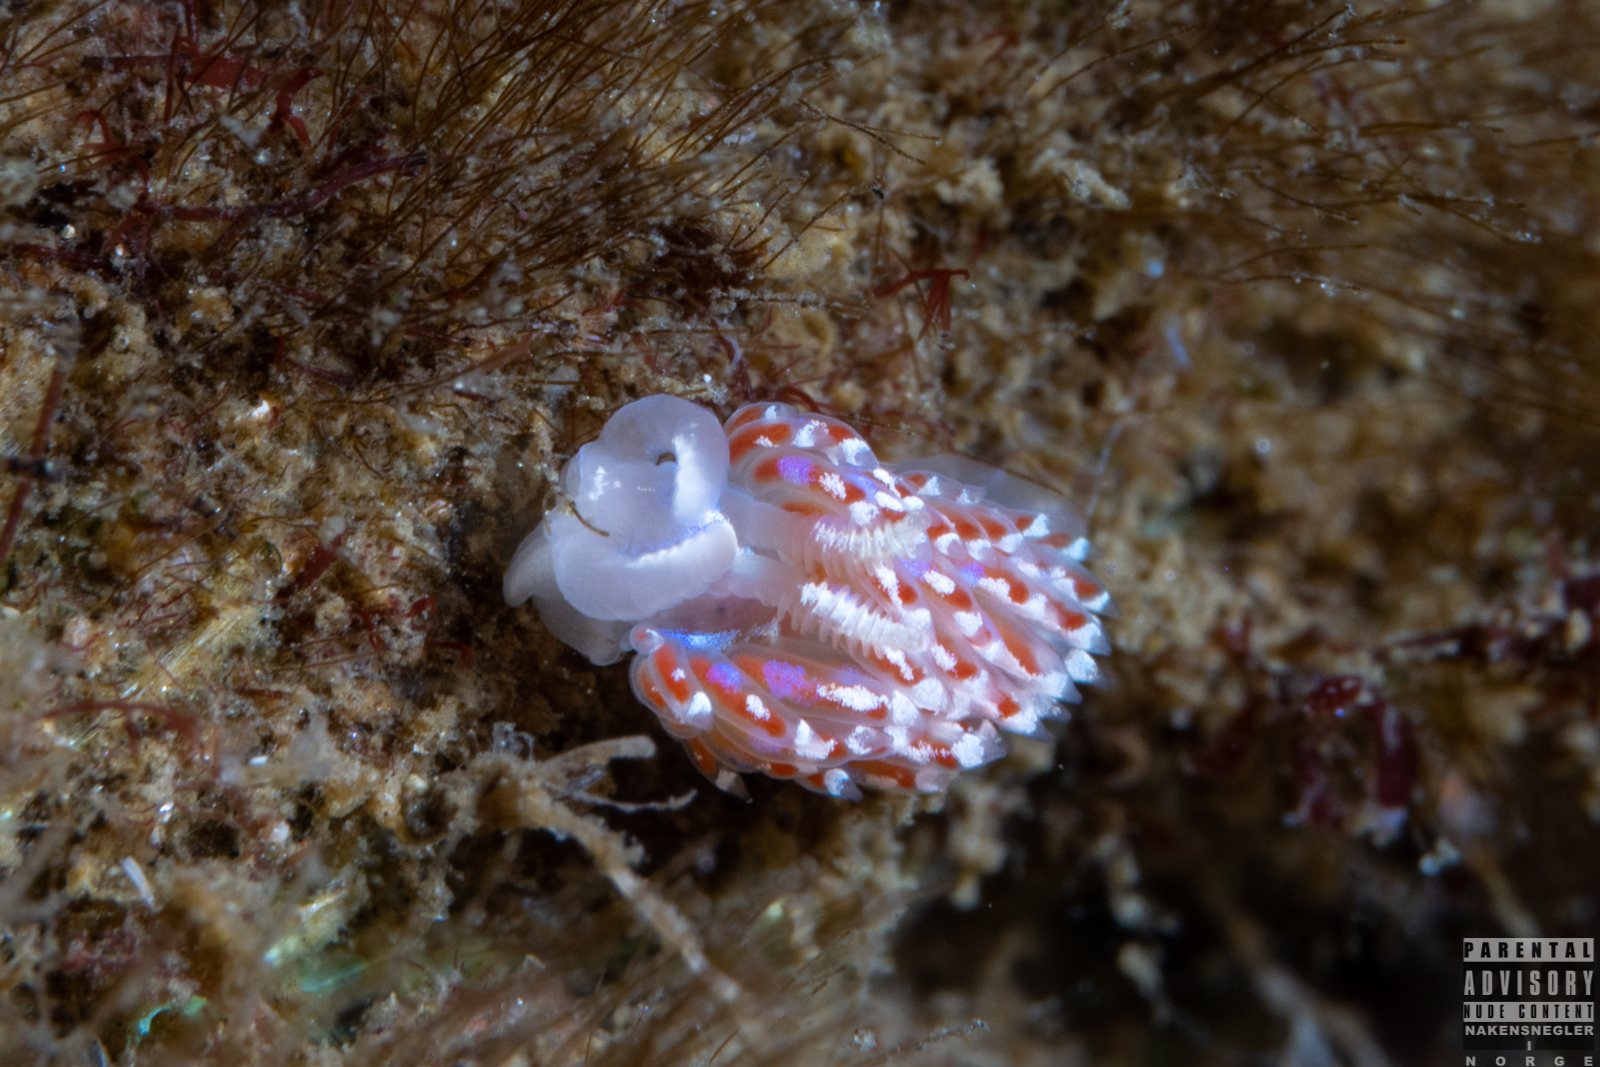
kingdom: Animalia
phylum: Mollusca
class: Gastropoda
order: Nudibranchia
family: Facelinidae
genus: Facelina
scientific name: Facelina auriculata
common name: Slender facelina
